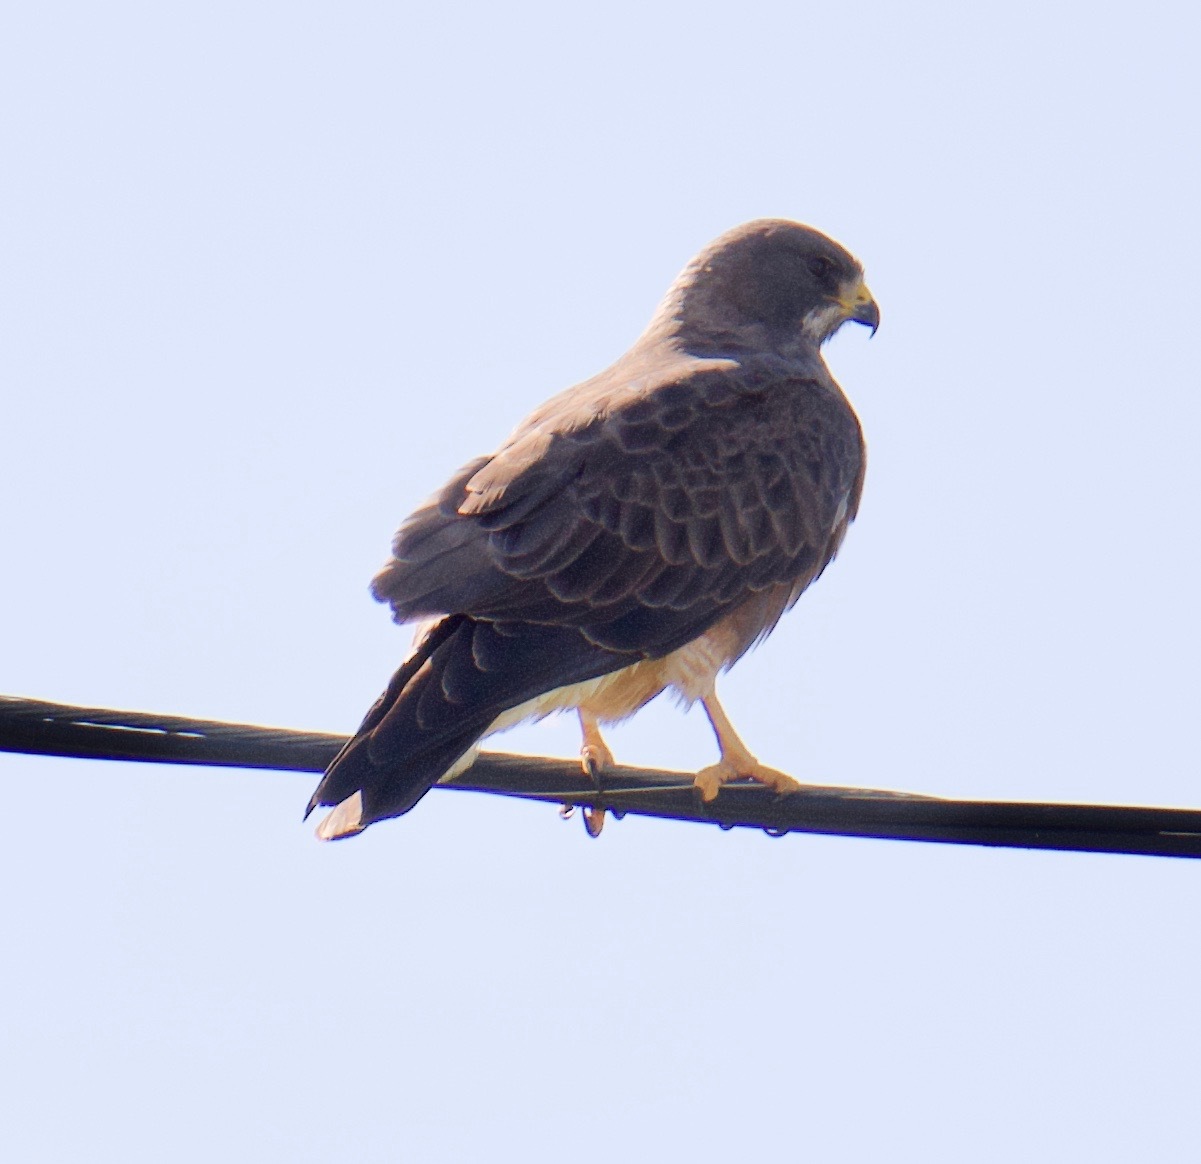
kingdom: Animalia
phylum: Chordata
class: Aves
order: Accipitriformes
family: Accipitridae
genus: Buteo
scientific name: Buteo swainsoni
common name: Swainson's hawk
